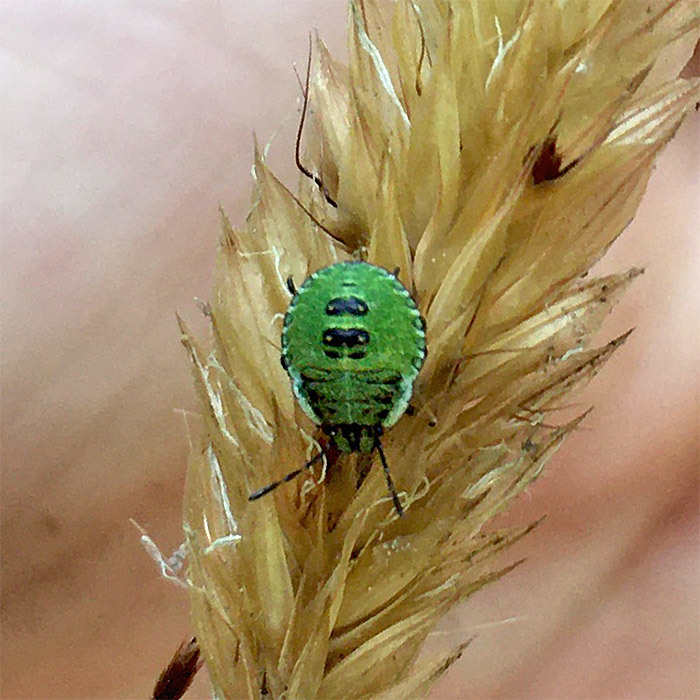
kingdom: Animalia
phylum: Arthropoda
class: Insecta
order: Hemiptera
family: Pentatomidae
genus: Palomena
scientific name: Palomena prasina
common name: Green shieldbug
